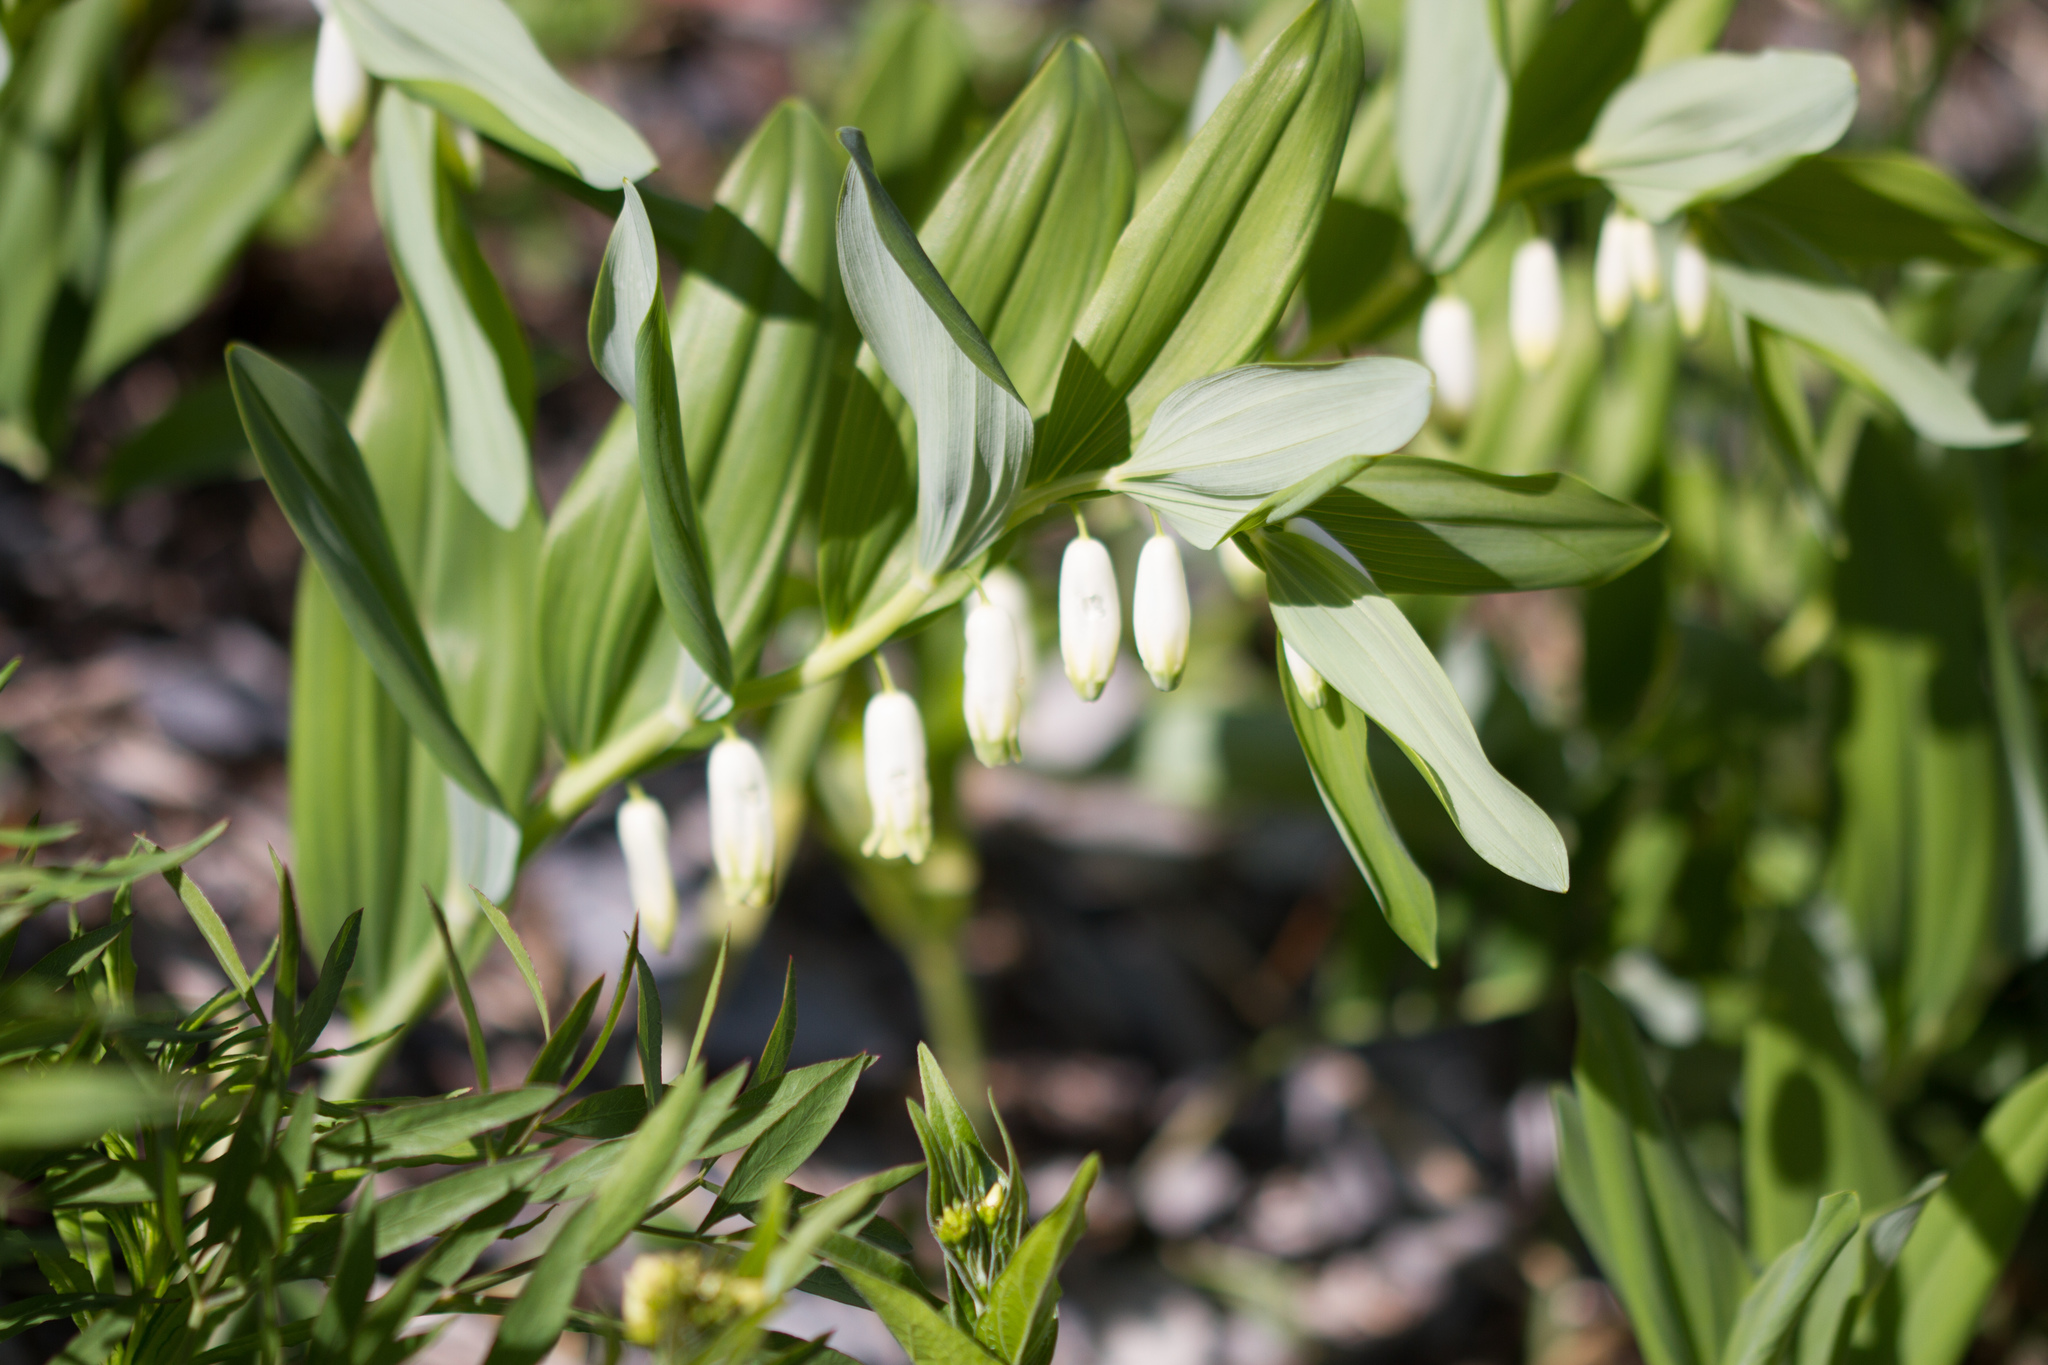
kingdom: Plantae
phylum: Tracheophyta
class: Liliopsida
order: Asparagales
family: Asparagaceae
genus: Polygonatum
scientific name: Polygonatum odoratum
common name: Angular solomon's-seal
